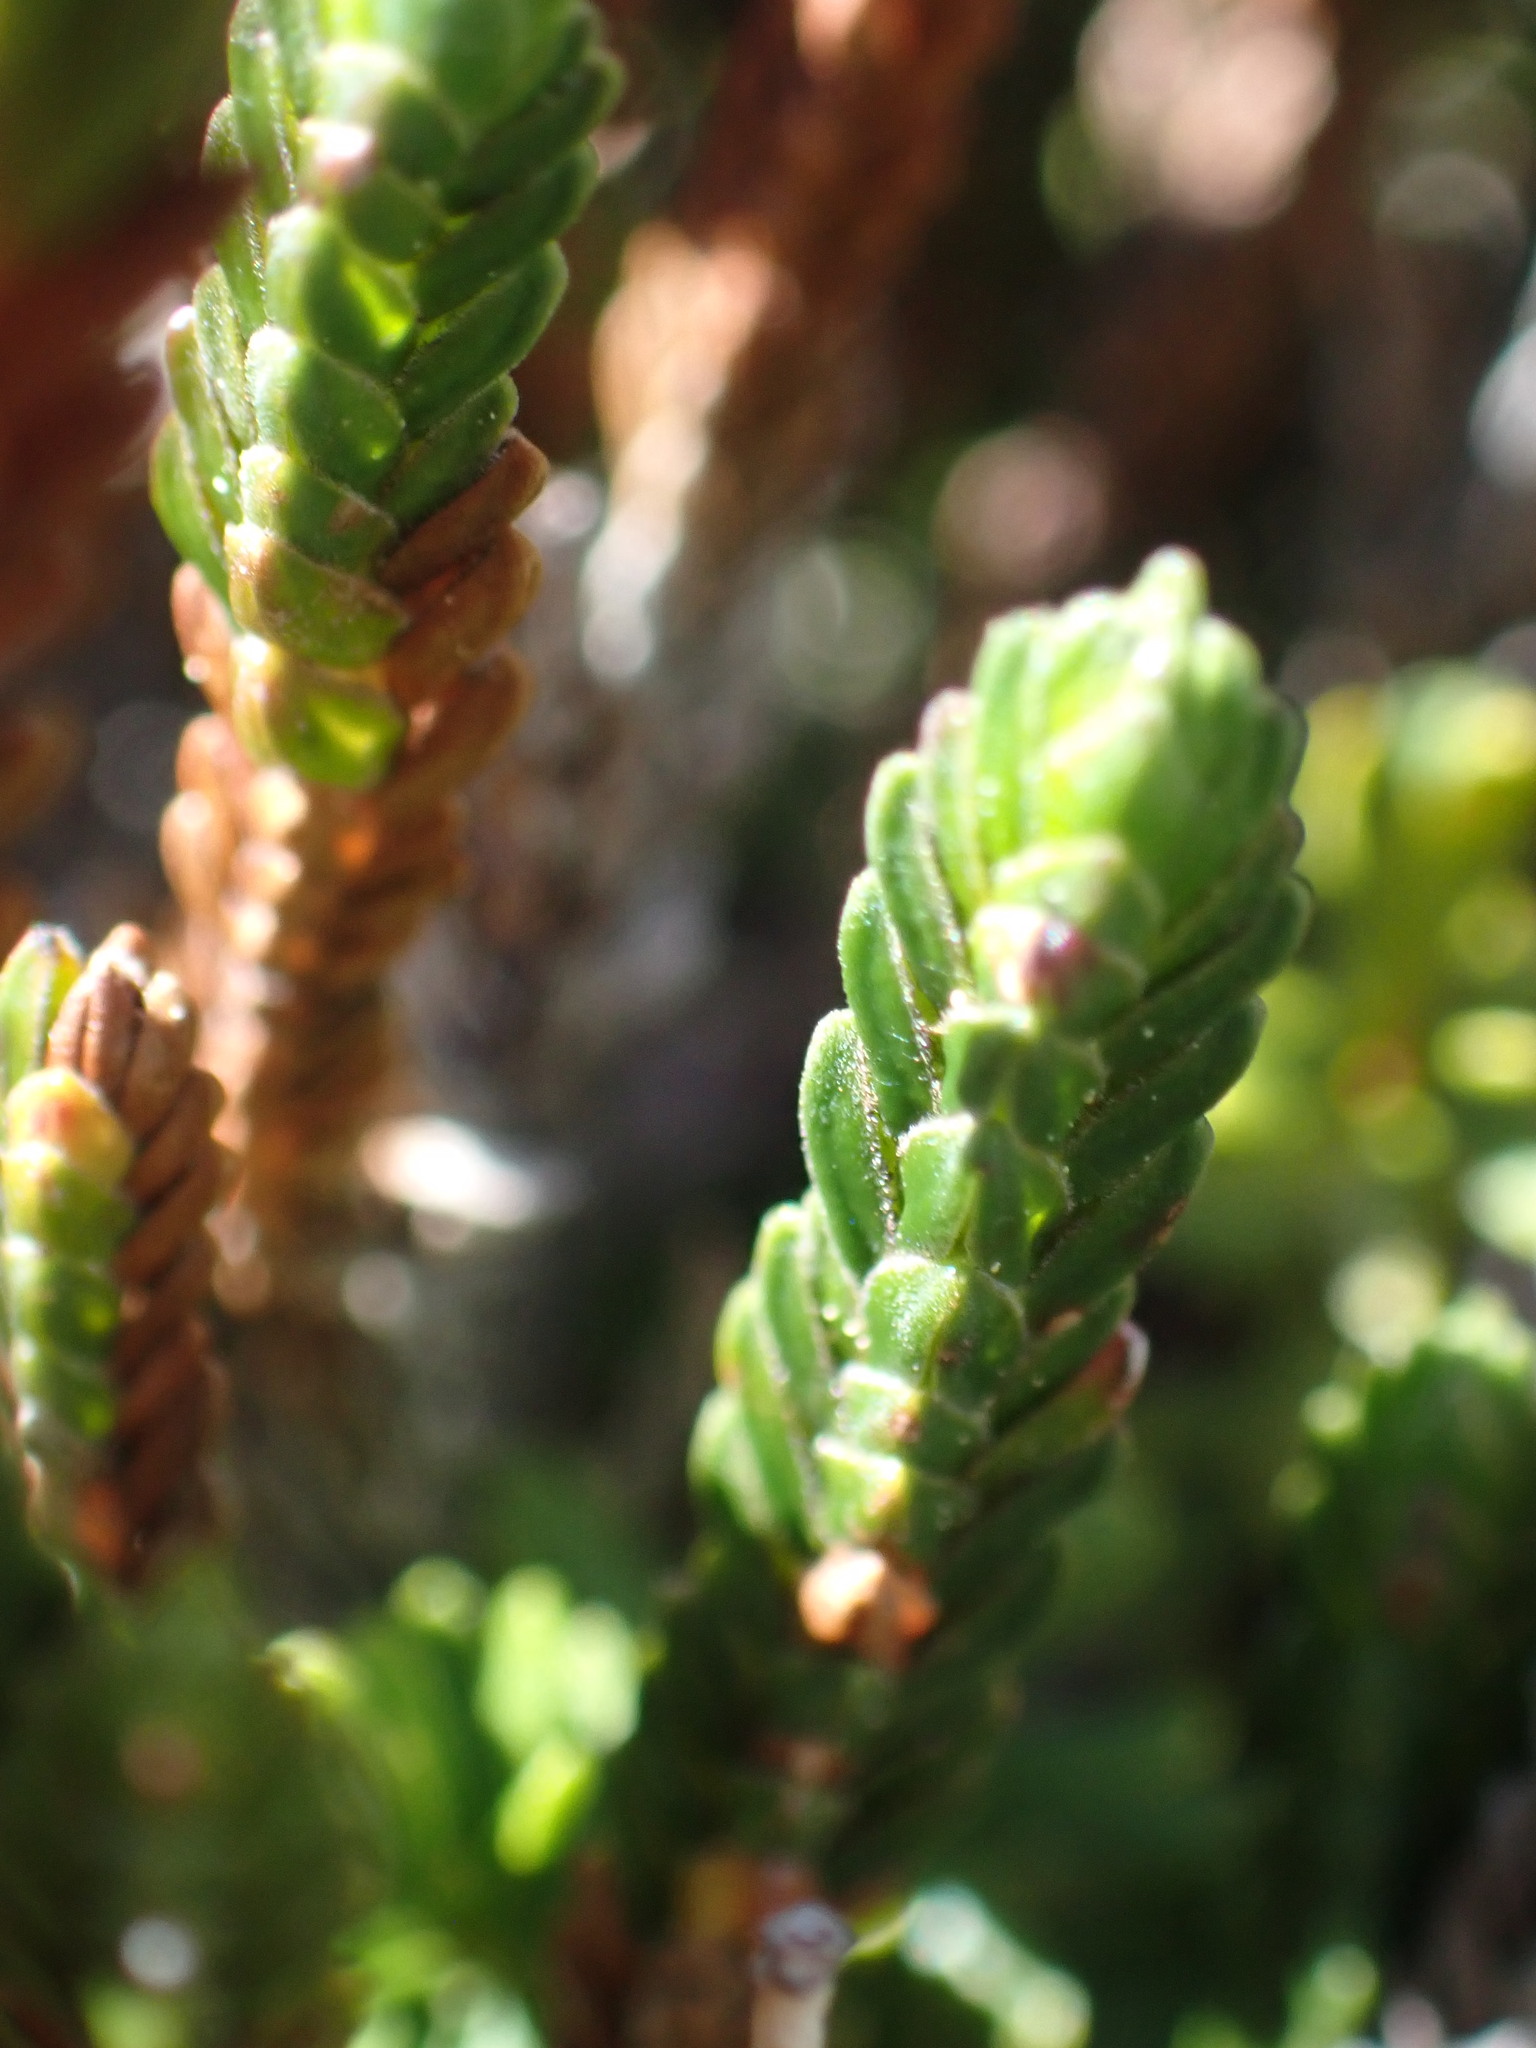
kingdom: Plantae
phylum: Tracheophyta
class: Magnoliopsida
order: Ericales
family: Ericaceae
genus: Cassiope
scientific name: Cassiope tetragona
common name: Arctic bell heather
